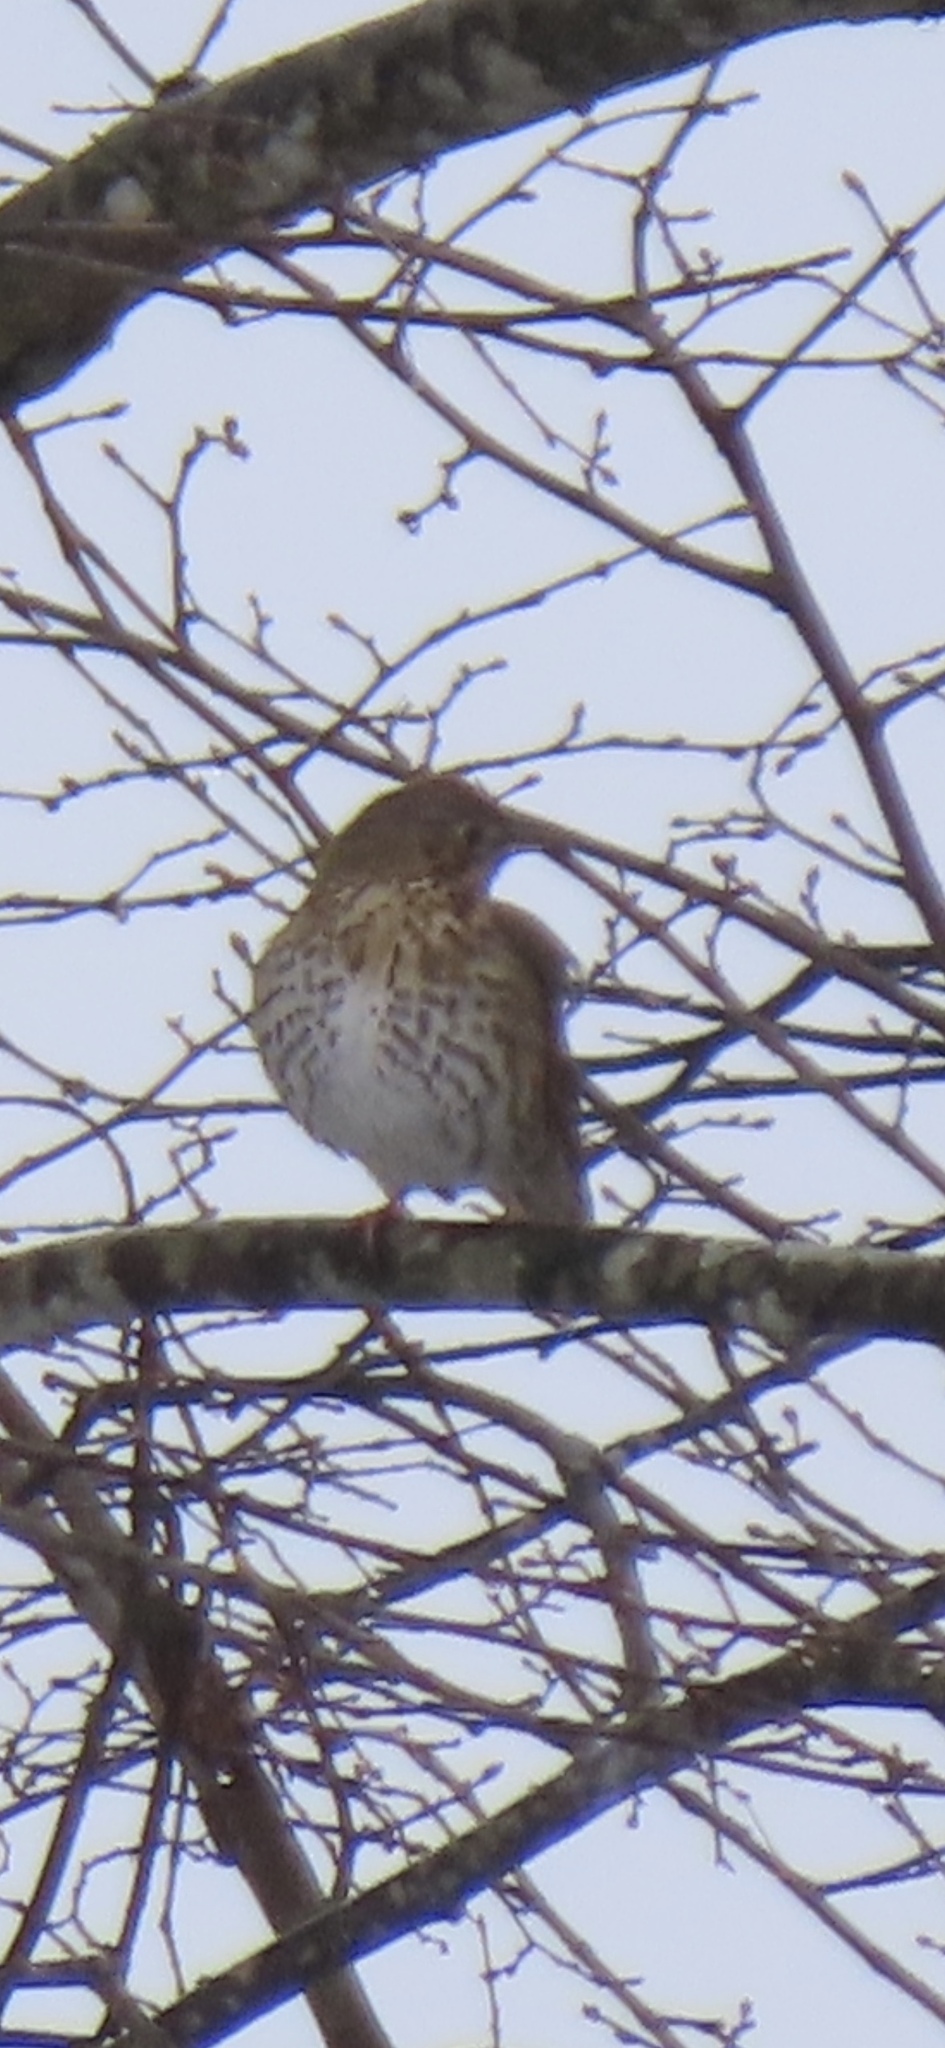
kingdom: Animalia
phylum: Chordata
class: Aves
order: Passeriformes
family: Turdidae
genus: Turdus
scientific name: Turdus philomelos
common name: Song thrush
